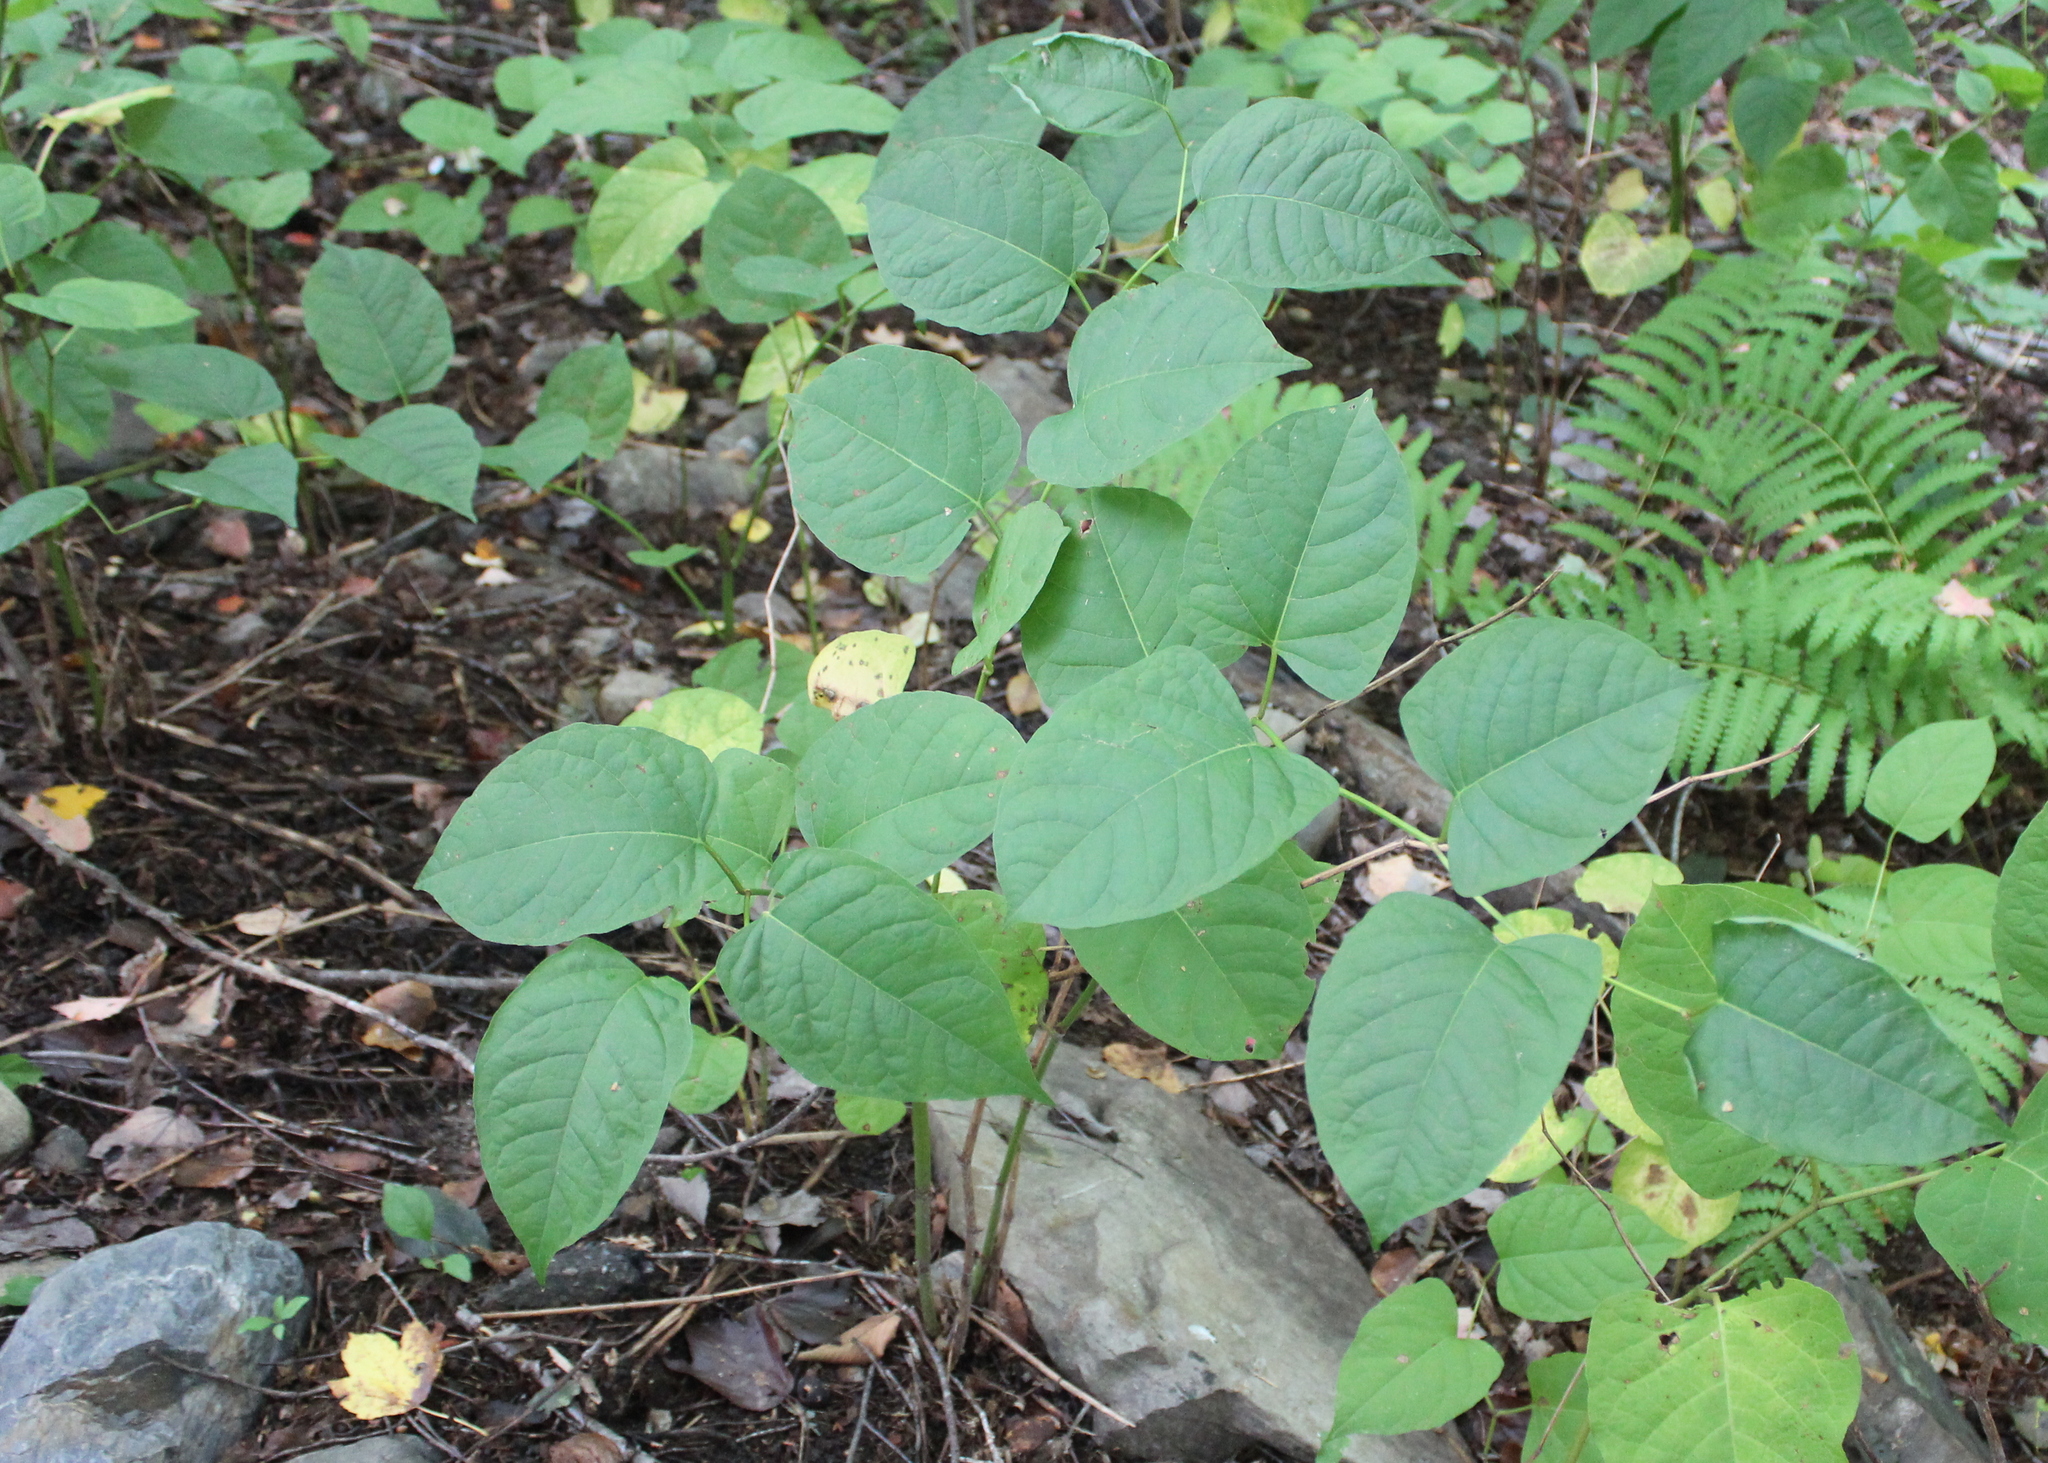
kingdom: Plantae
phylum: Tracheophyta
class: Magnoliopsida
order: Caryophyllales
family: Polygonaceae
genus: Reynoutria
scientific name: Reynoutria japonica
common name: Japanese knotweed
